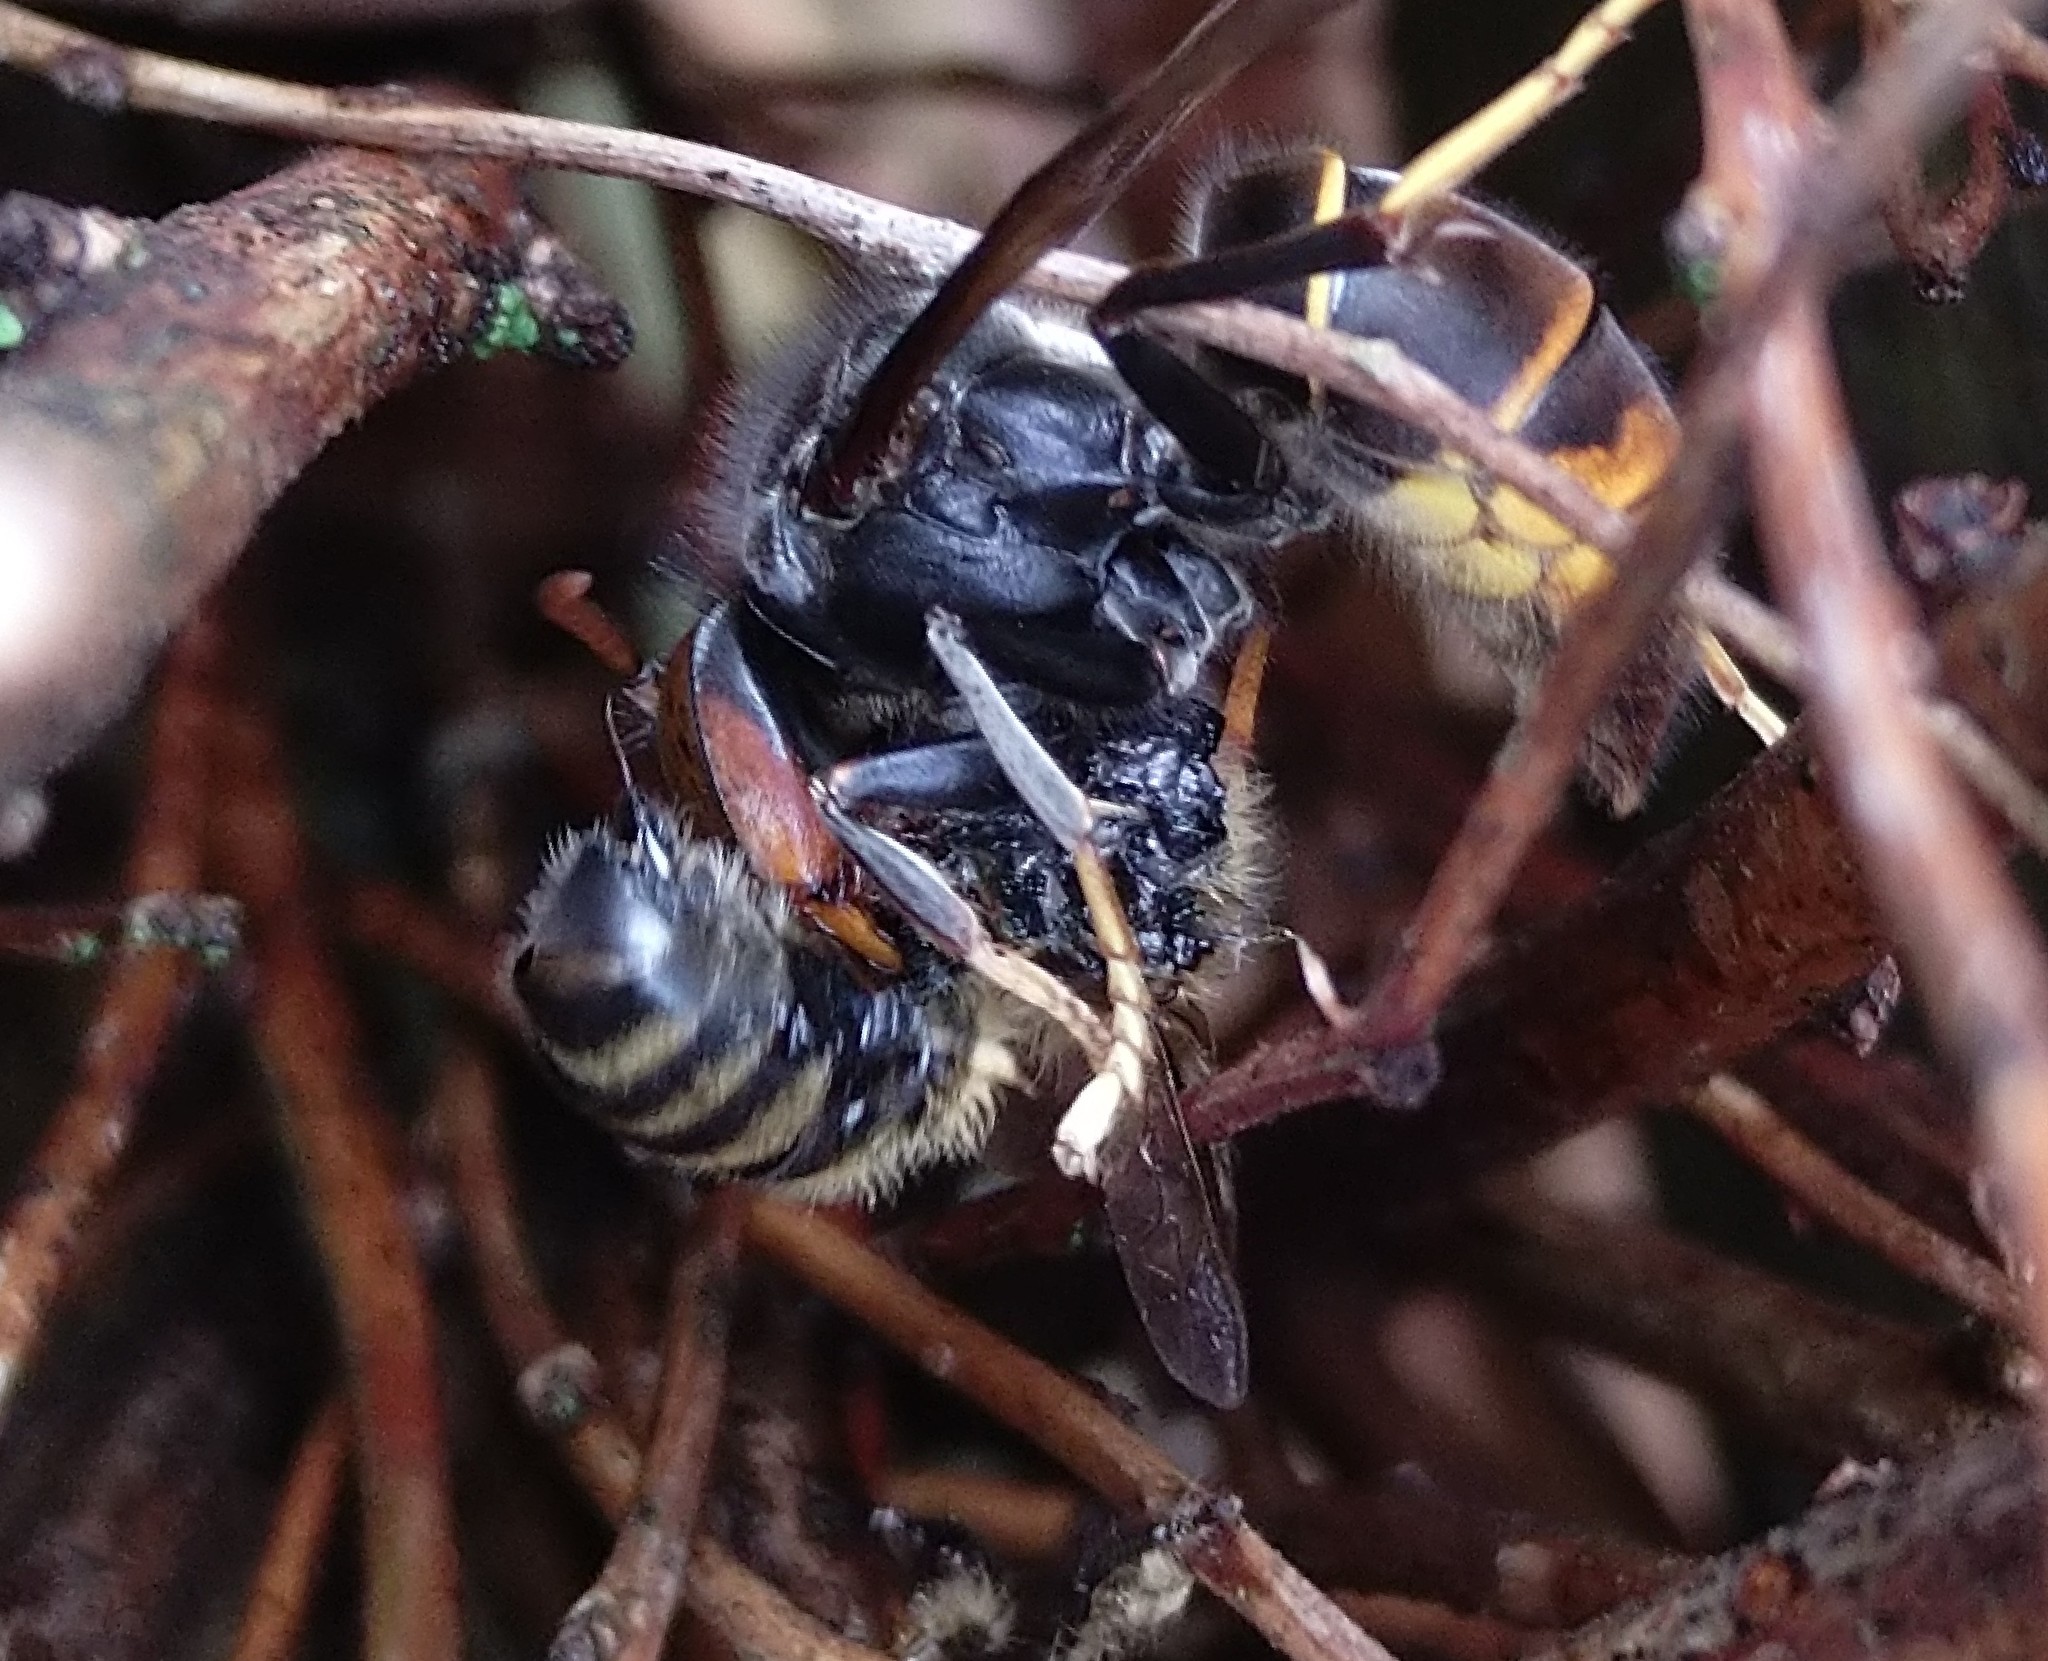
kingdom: Animalia
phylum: Arthropoda
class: Insecta
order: Hymenoptera
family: Vespidae
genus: Vespa
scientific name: Vespa velutina
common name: Asian hornet
